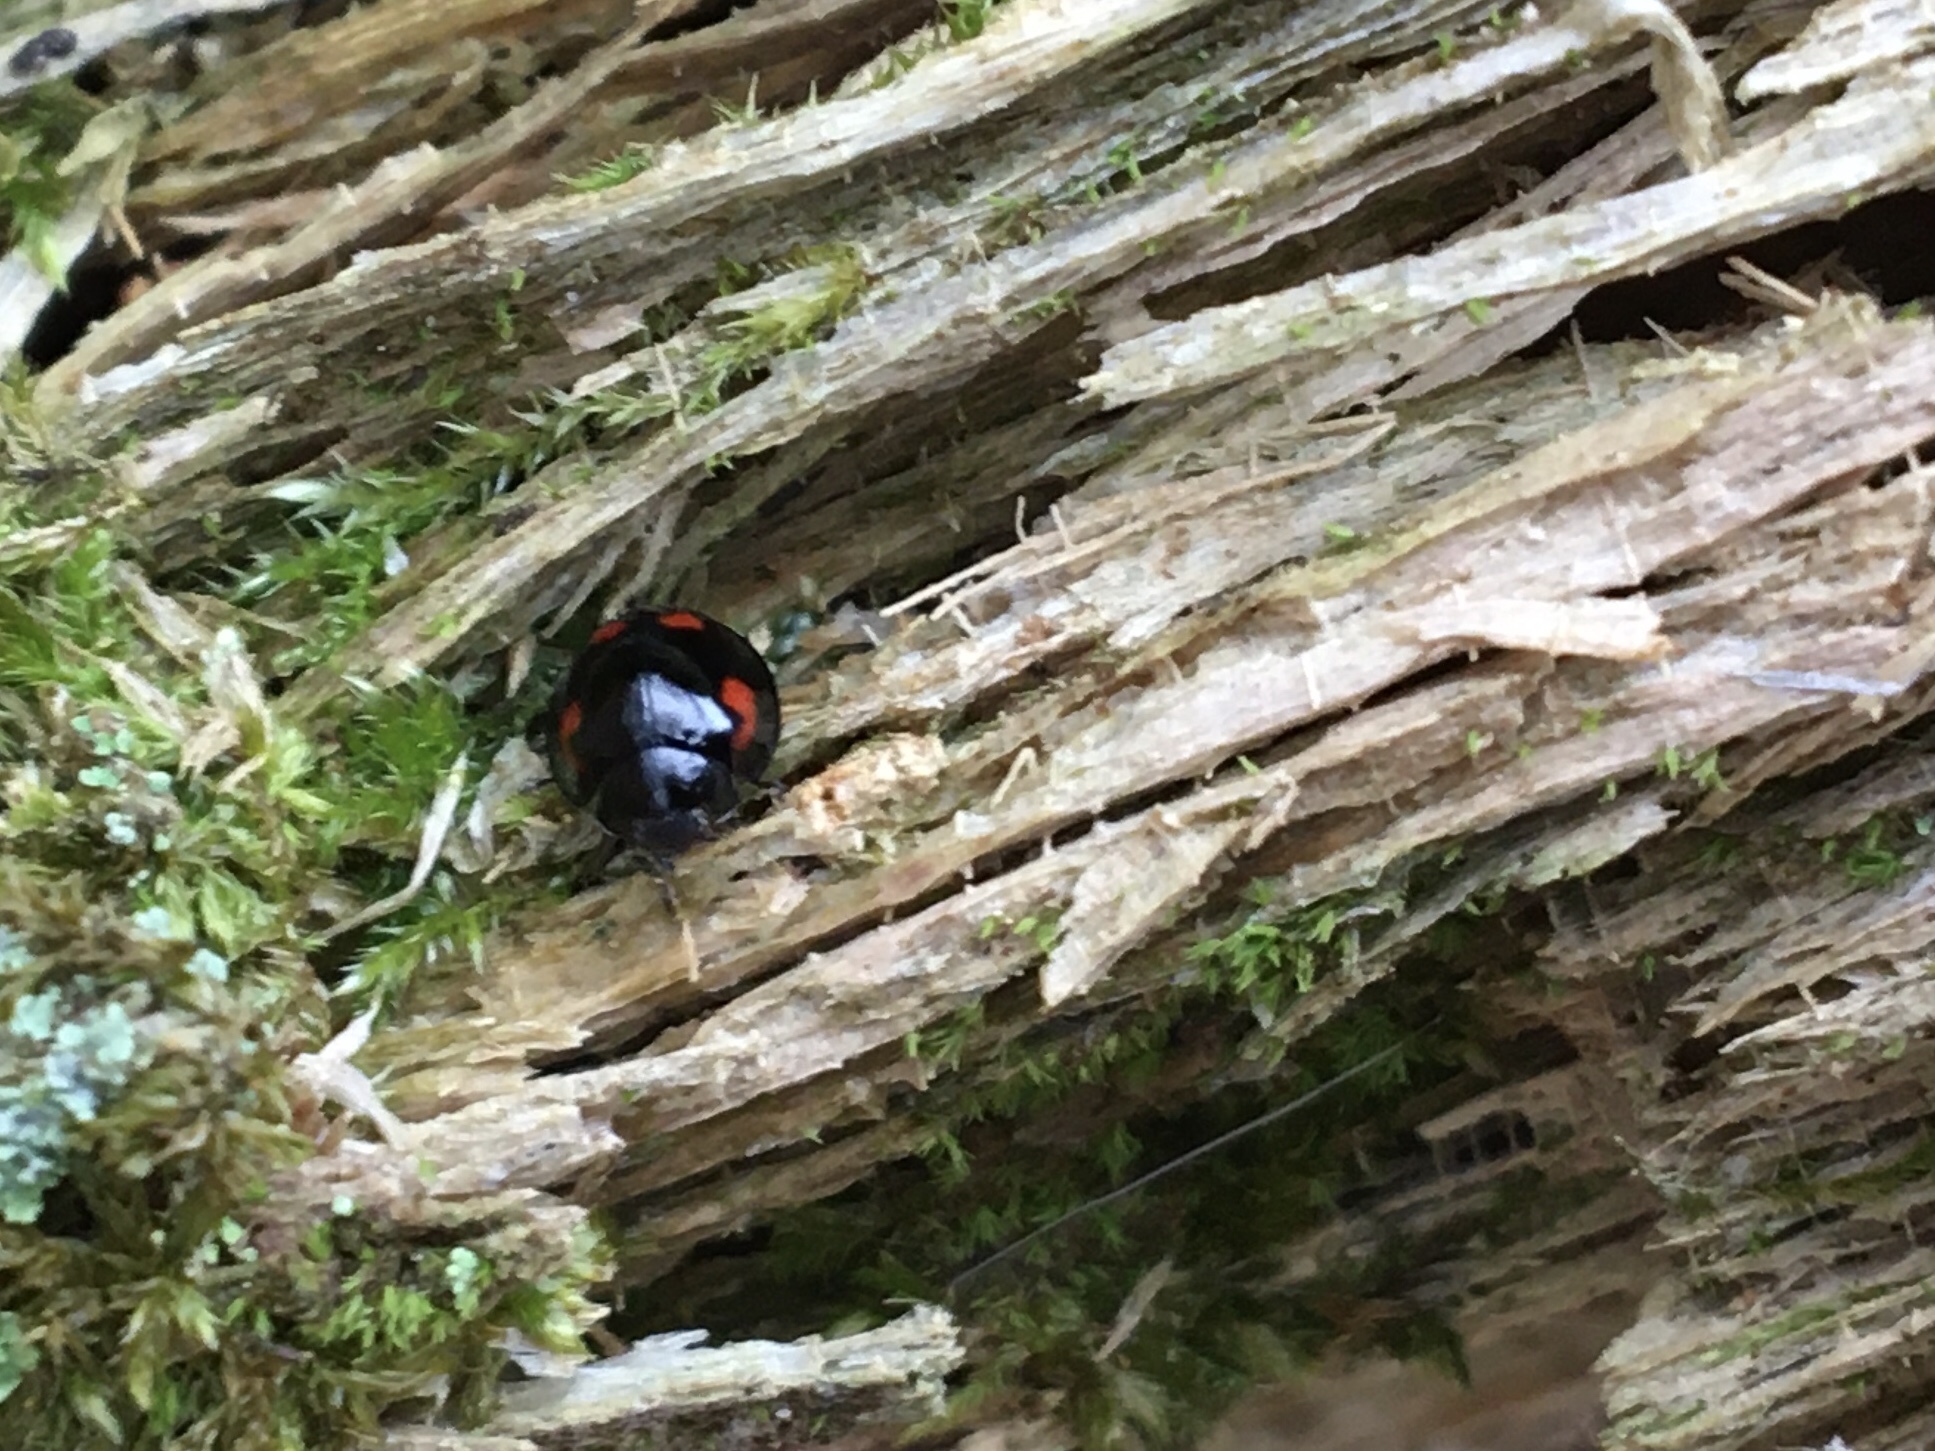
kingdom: Animalia
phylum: Arthropoda
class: Insecta
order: Coleoptera
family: Coccinellidae
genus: Brumus
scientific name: Brumus quadripustulatus
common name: Ladybird beetle
